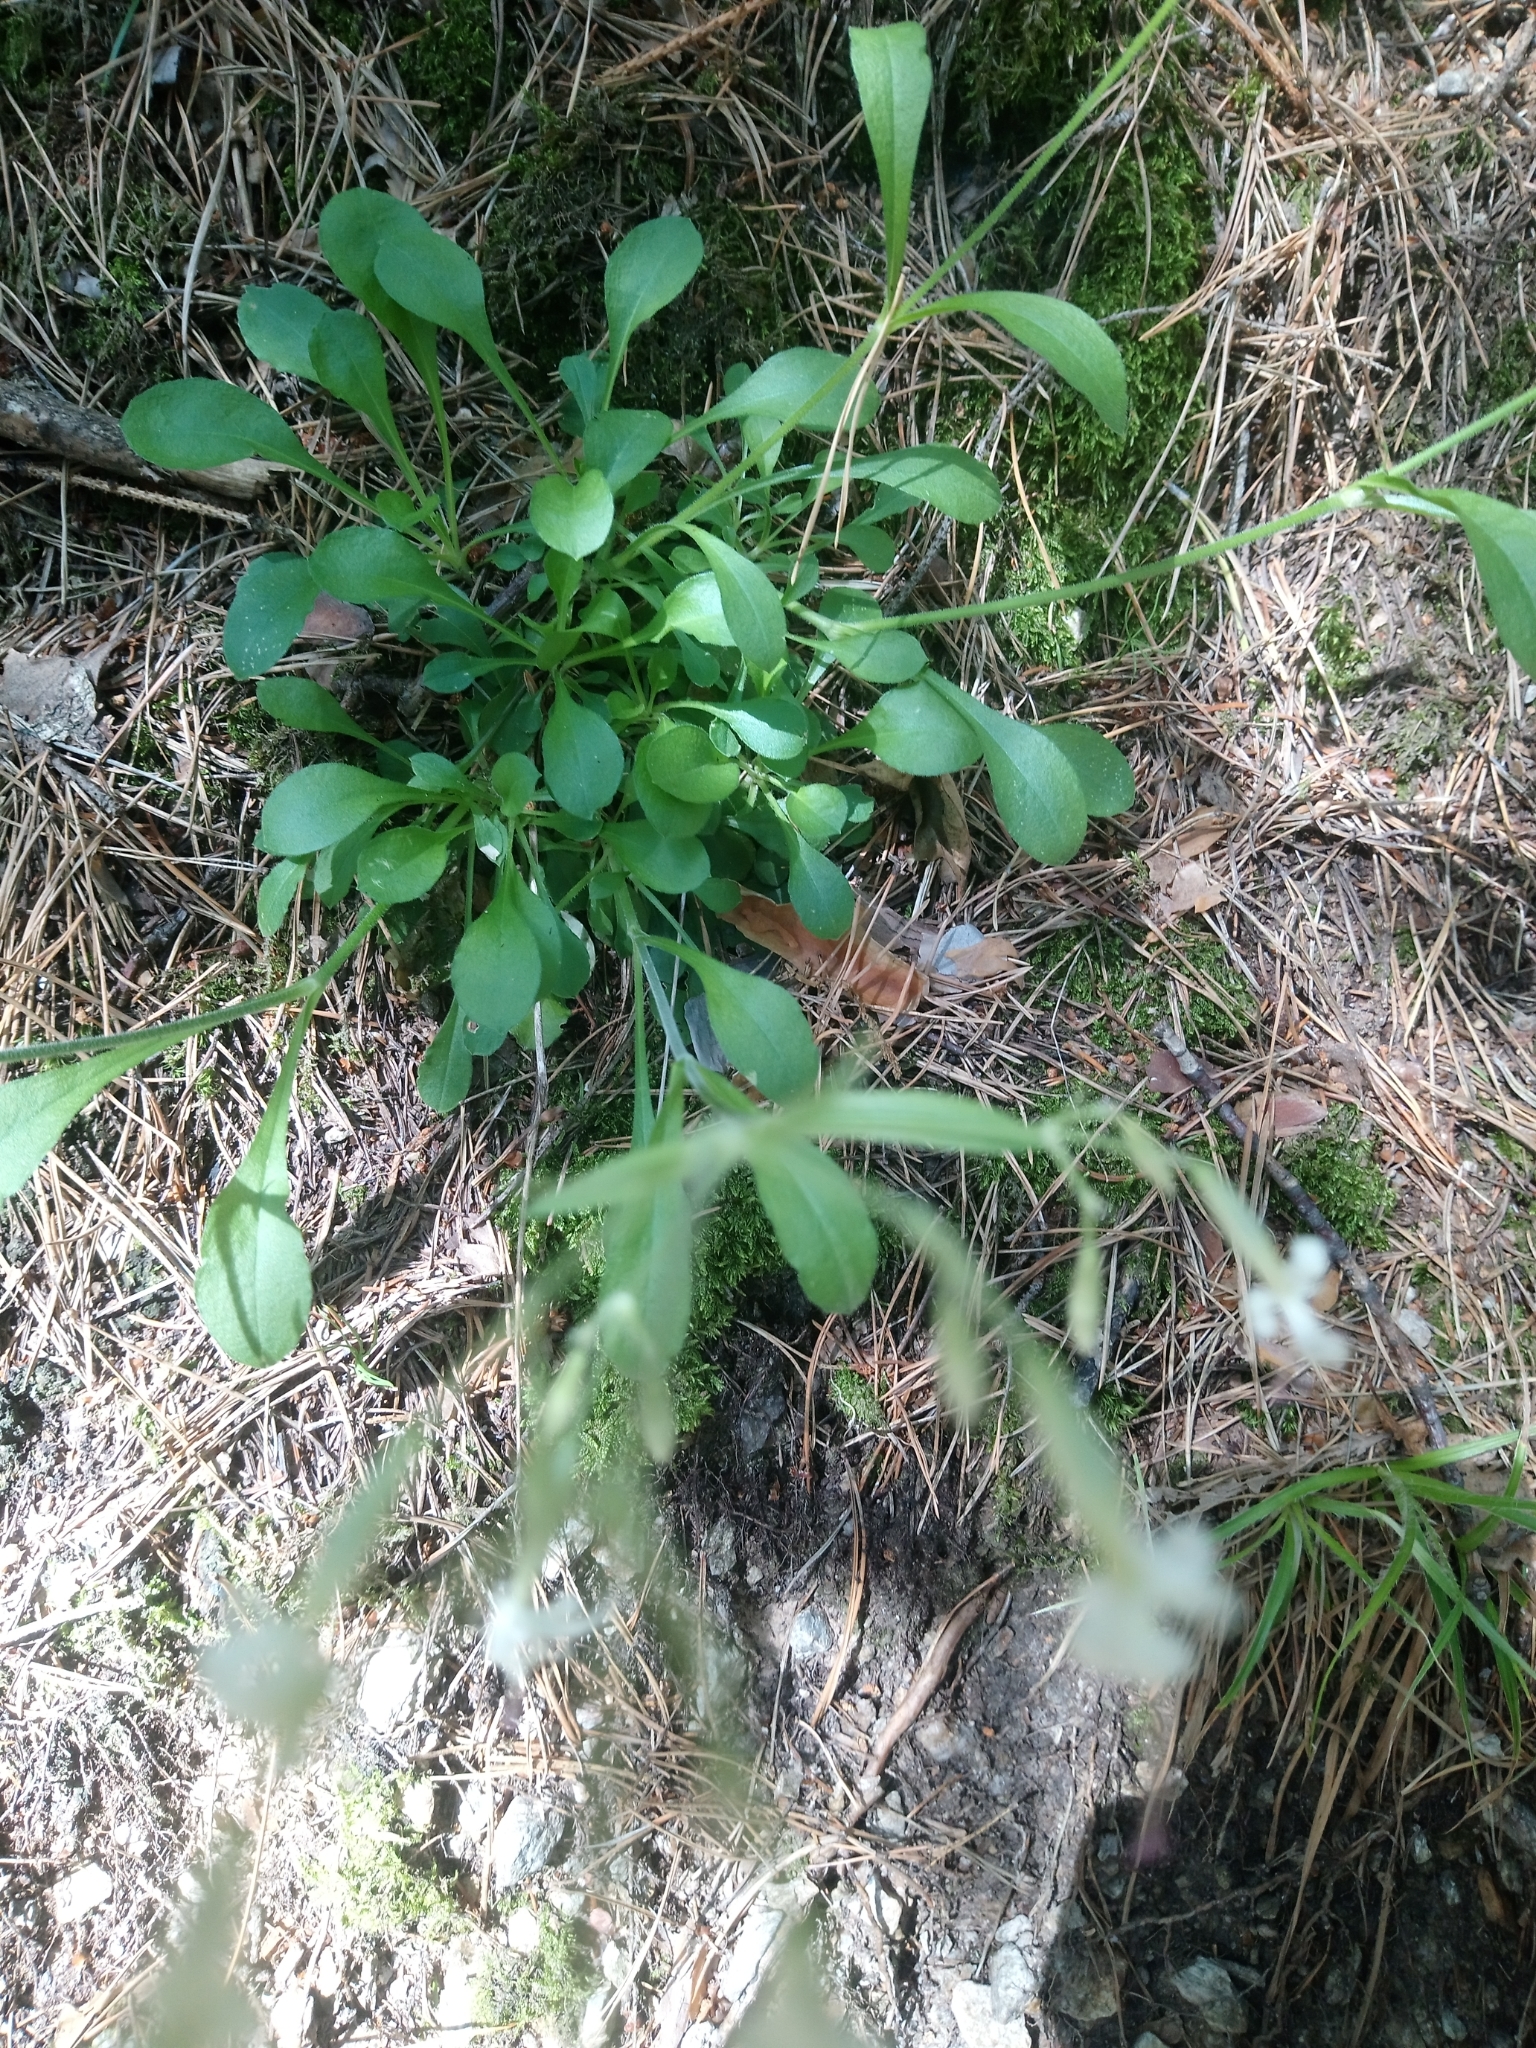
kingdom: Plantae
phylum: Tracheophyta
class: Magnoliopsida
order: Caryophyllales
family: Caryophyllaceae
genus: Silene
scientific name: Silene nutans
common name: Nottingham catchfly
